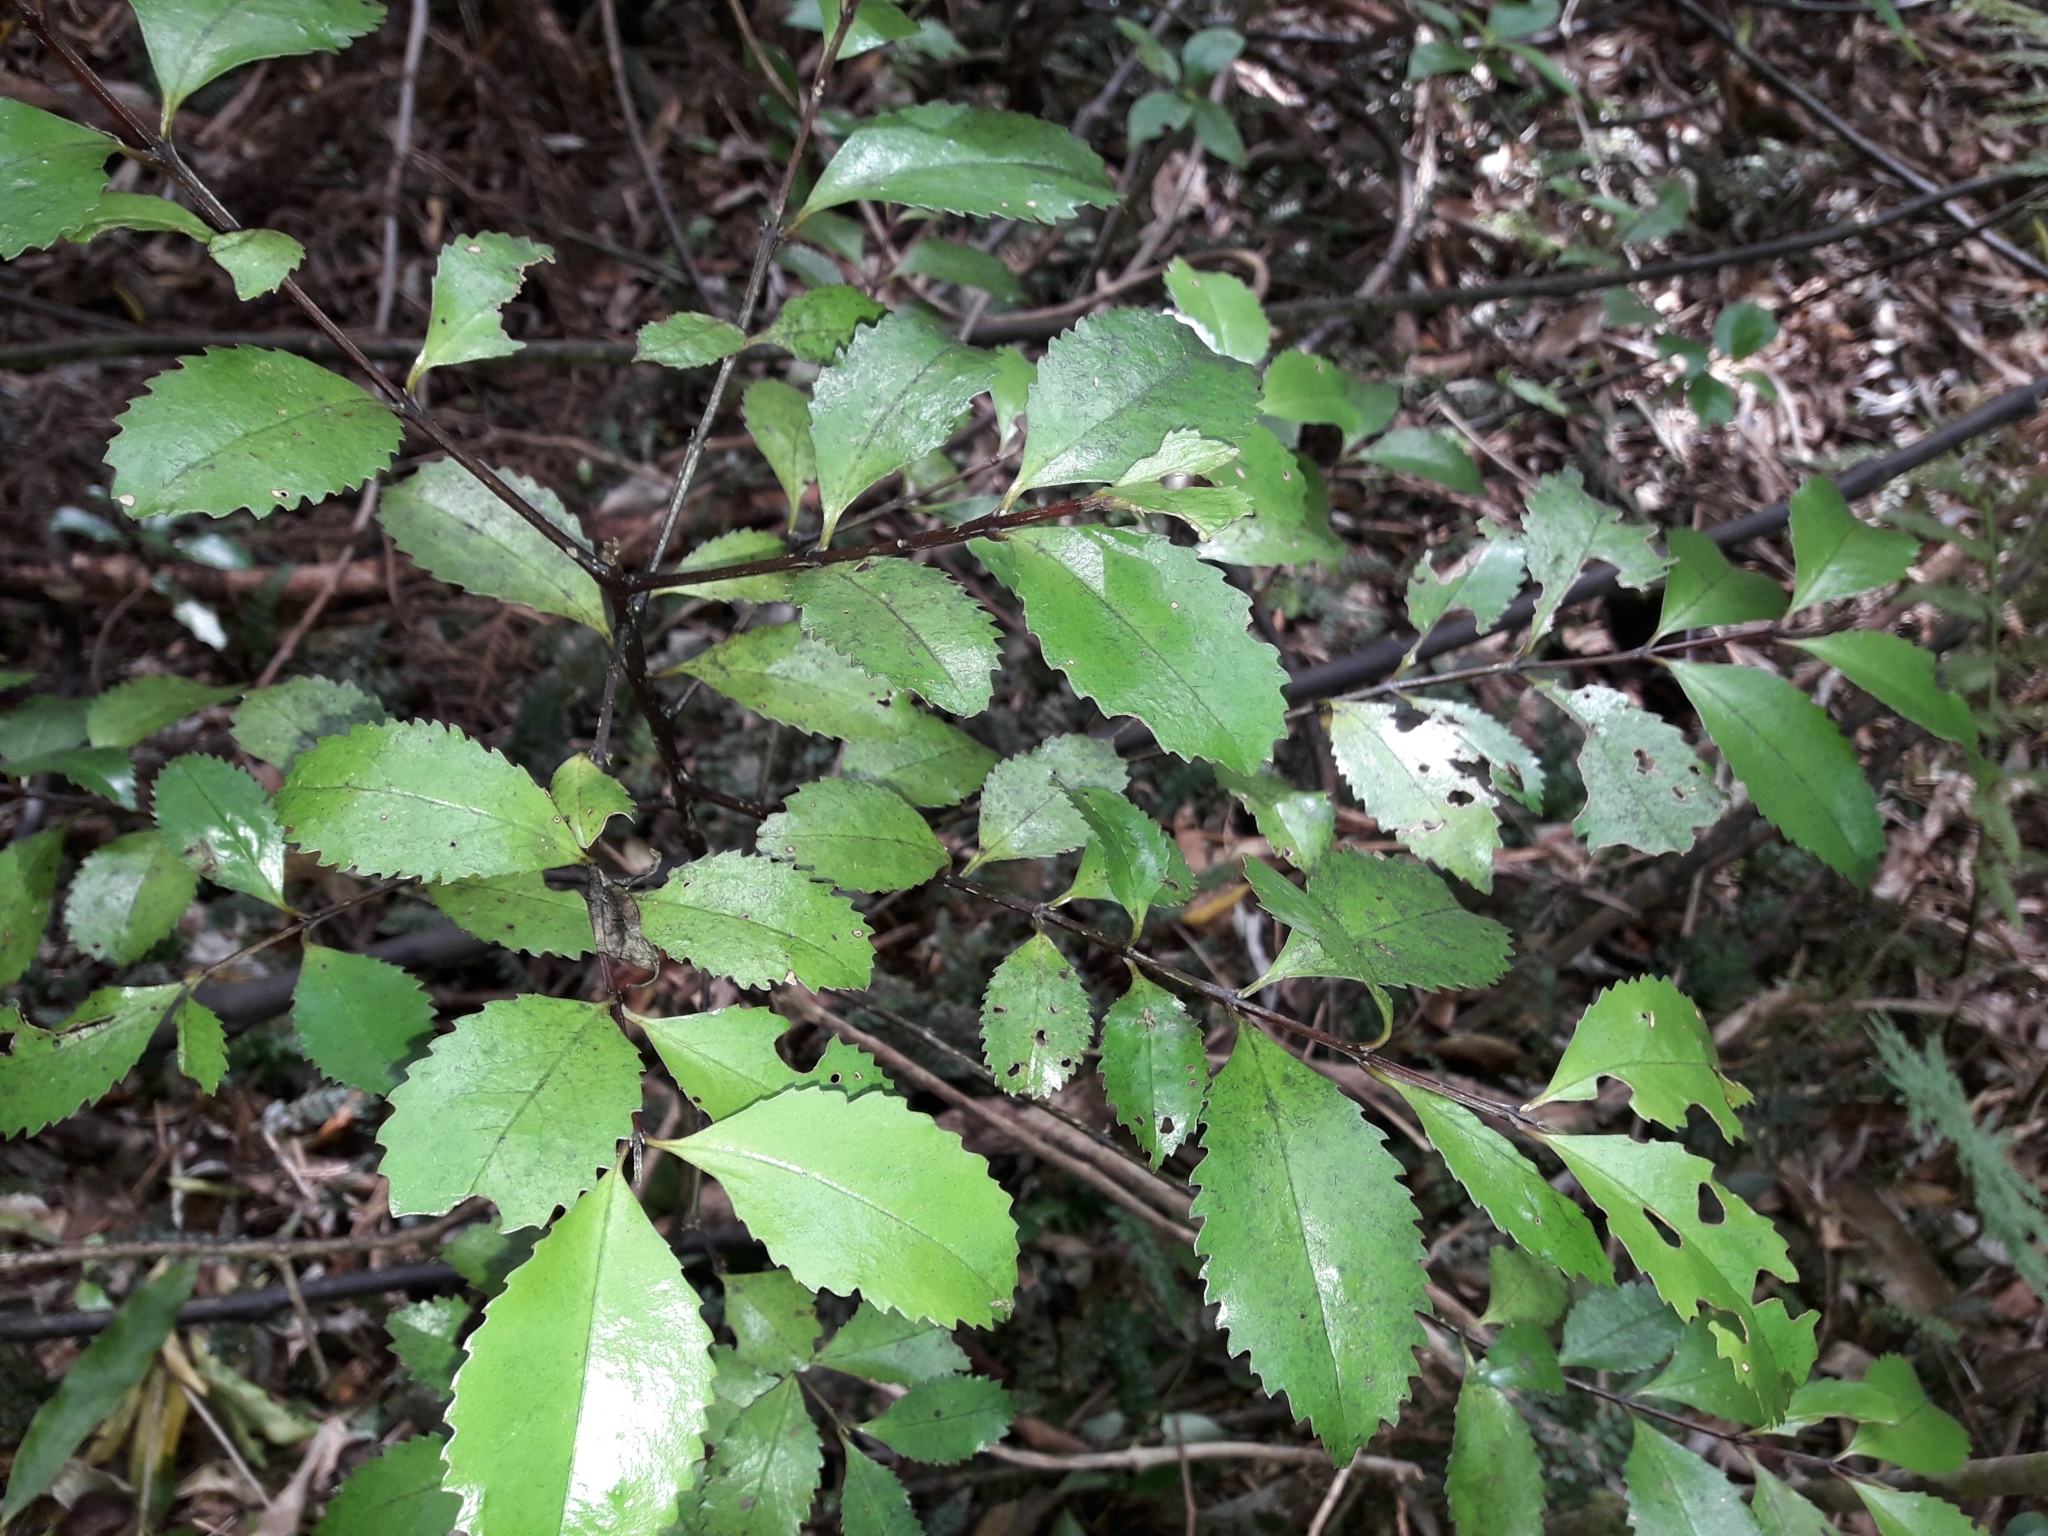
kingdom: Plantae
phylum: Tracheophyta
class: Magnoliopsida
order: Laurales
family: Atherospermataceae
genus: Laurelia
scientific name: Laurelia novae-zelandiae
